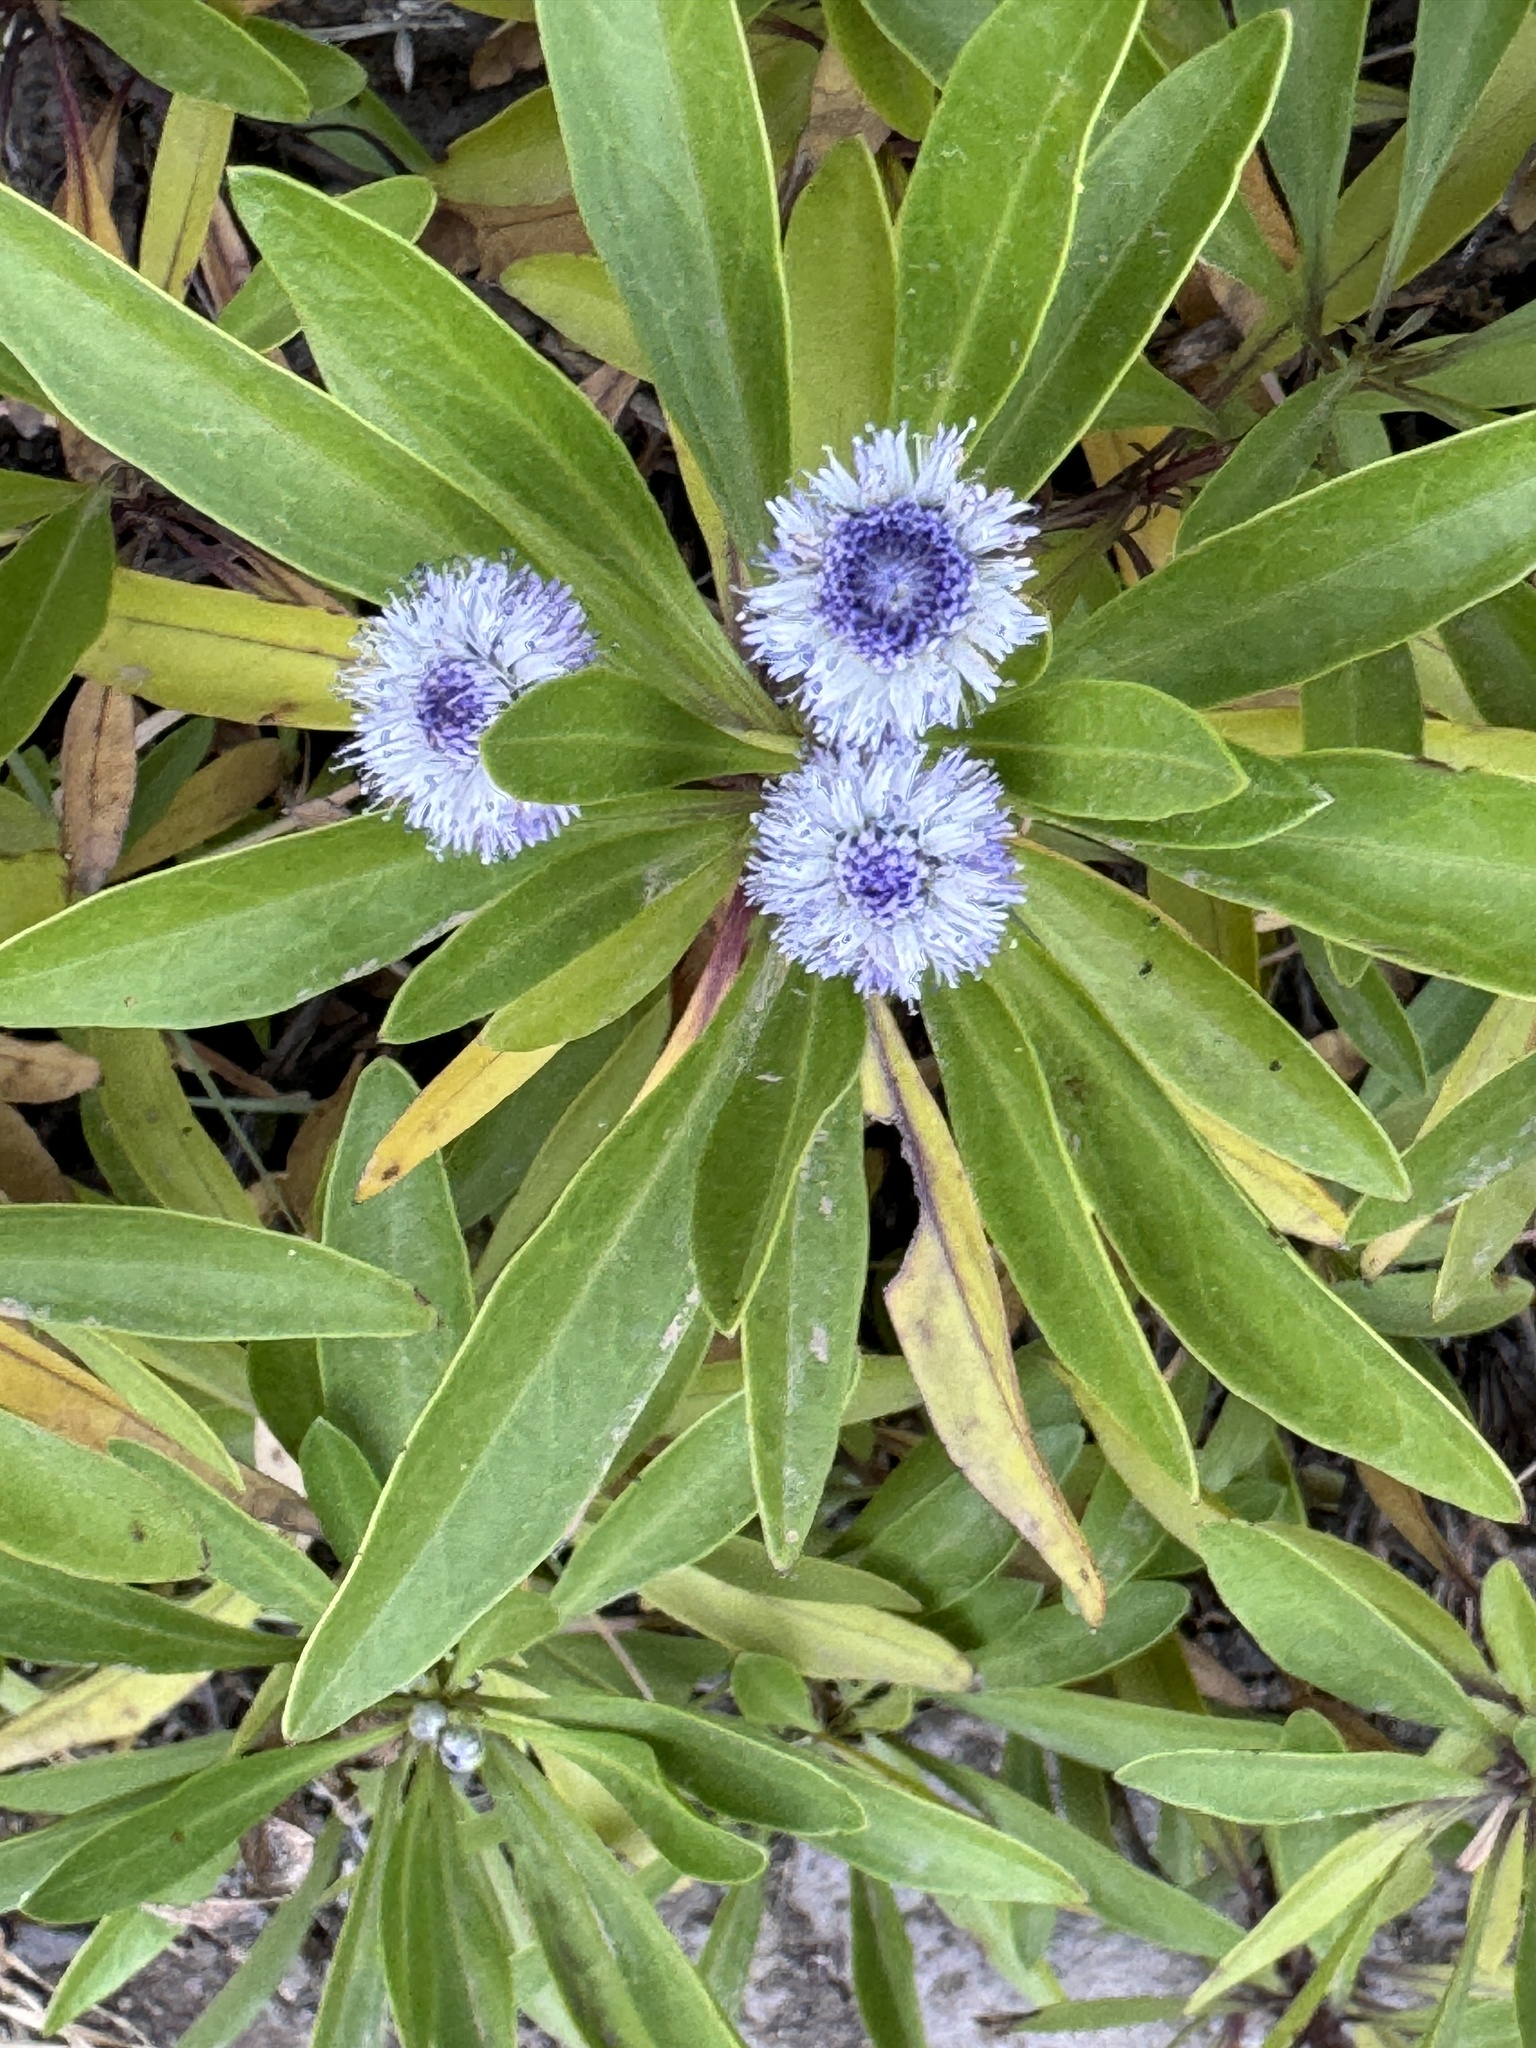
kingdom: Plantae
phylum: Tracheophyta
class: Magnoliopsida
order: Lamiales
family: Plantaginaceae
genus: Globularia
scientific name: Globularia amygdalifolia
